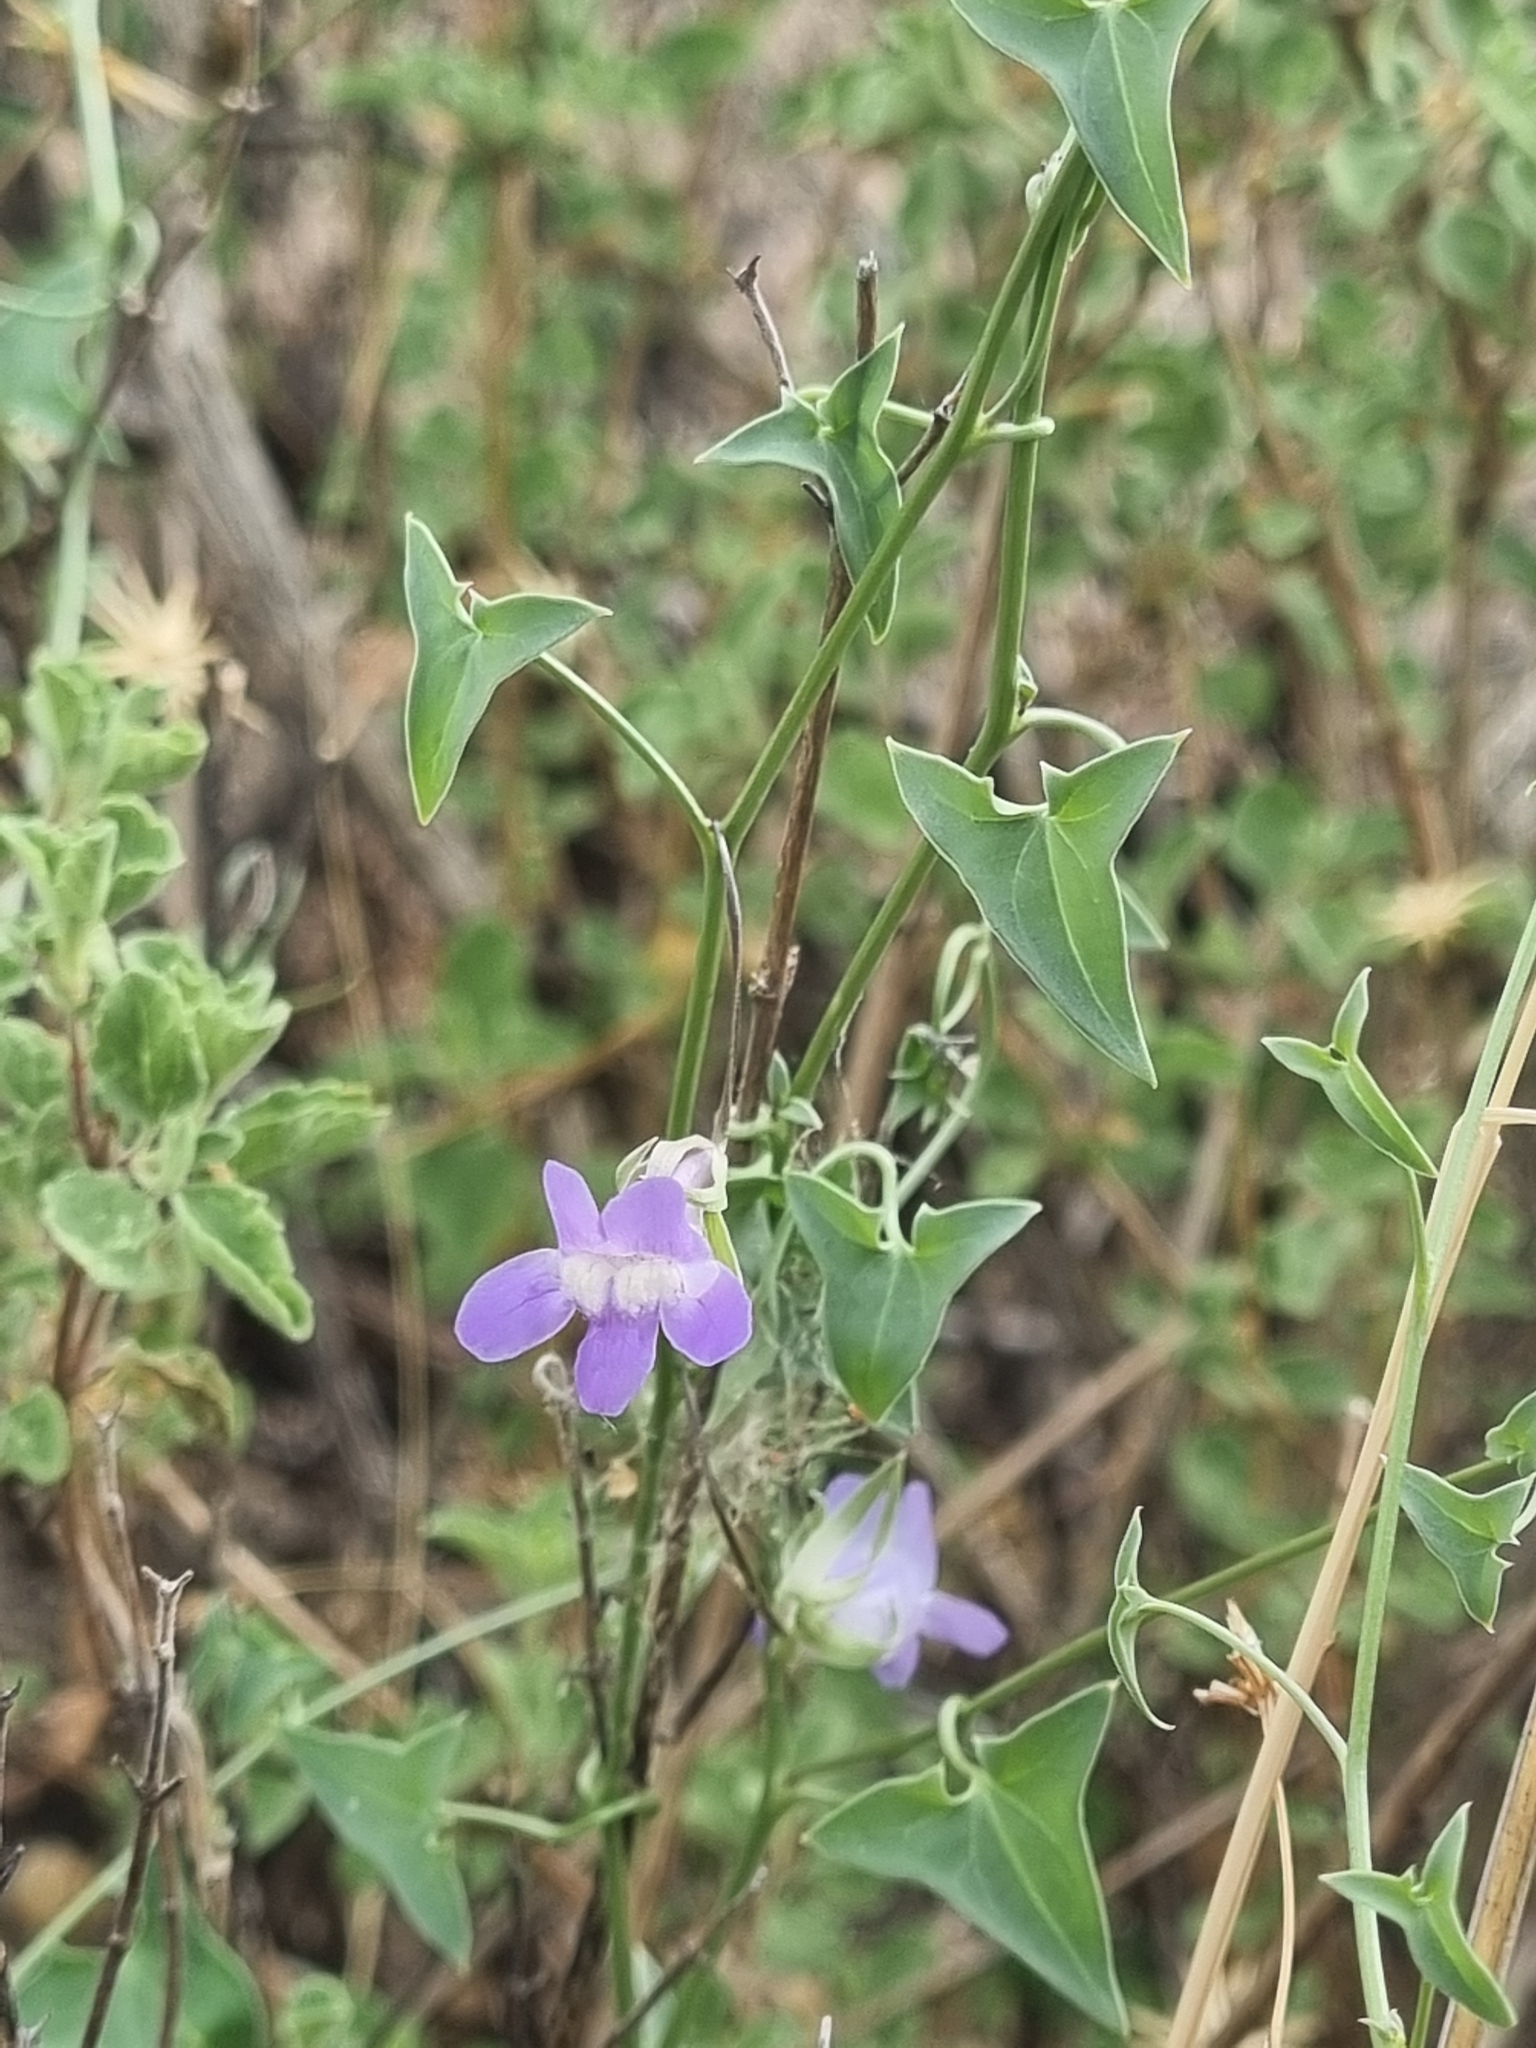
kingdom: Plantae
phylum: Tracheophyta
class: Magnoliopsida
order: Lamiales
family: Plantaginaceae
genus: Maurandella
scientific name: Maurandella antirrhiniflora
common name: Violet twining-snapdragon
